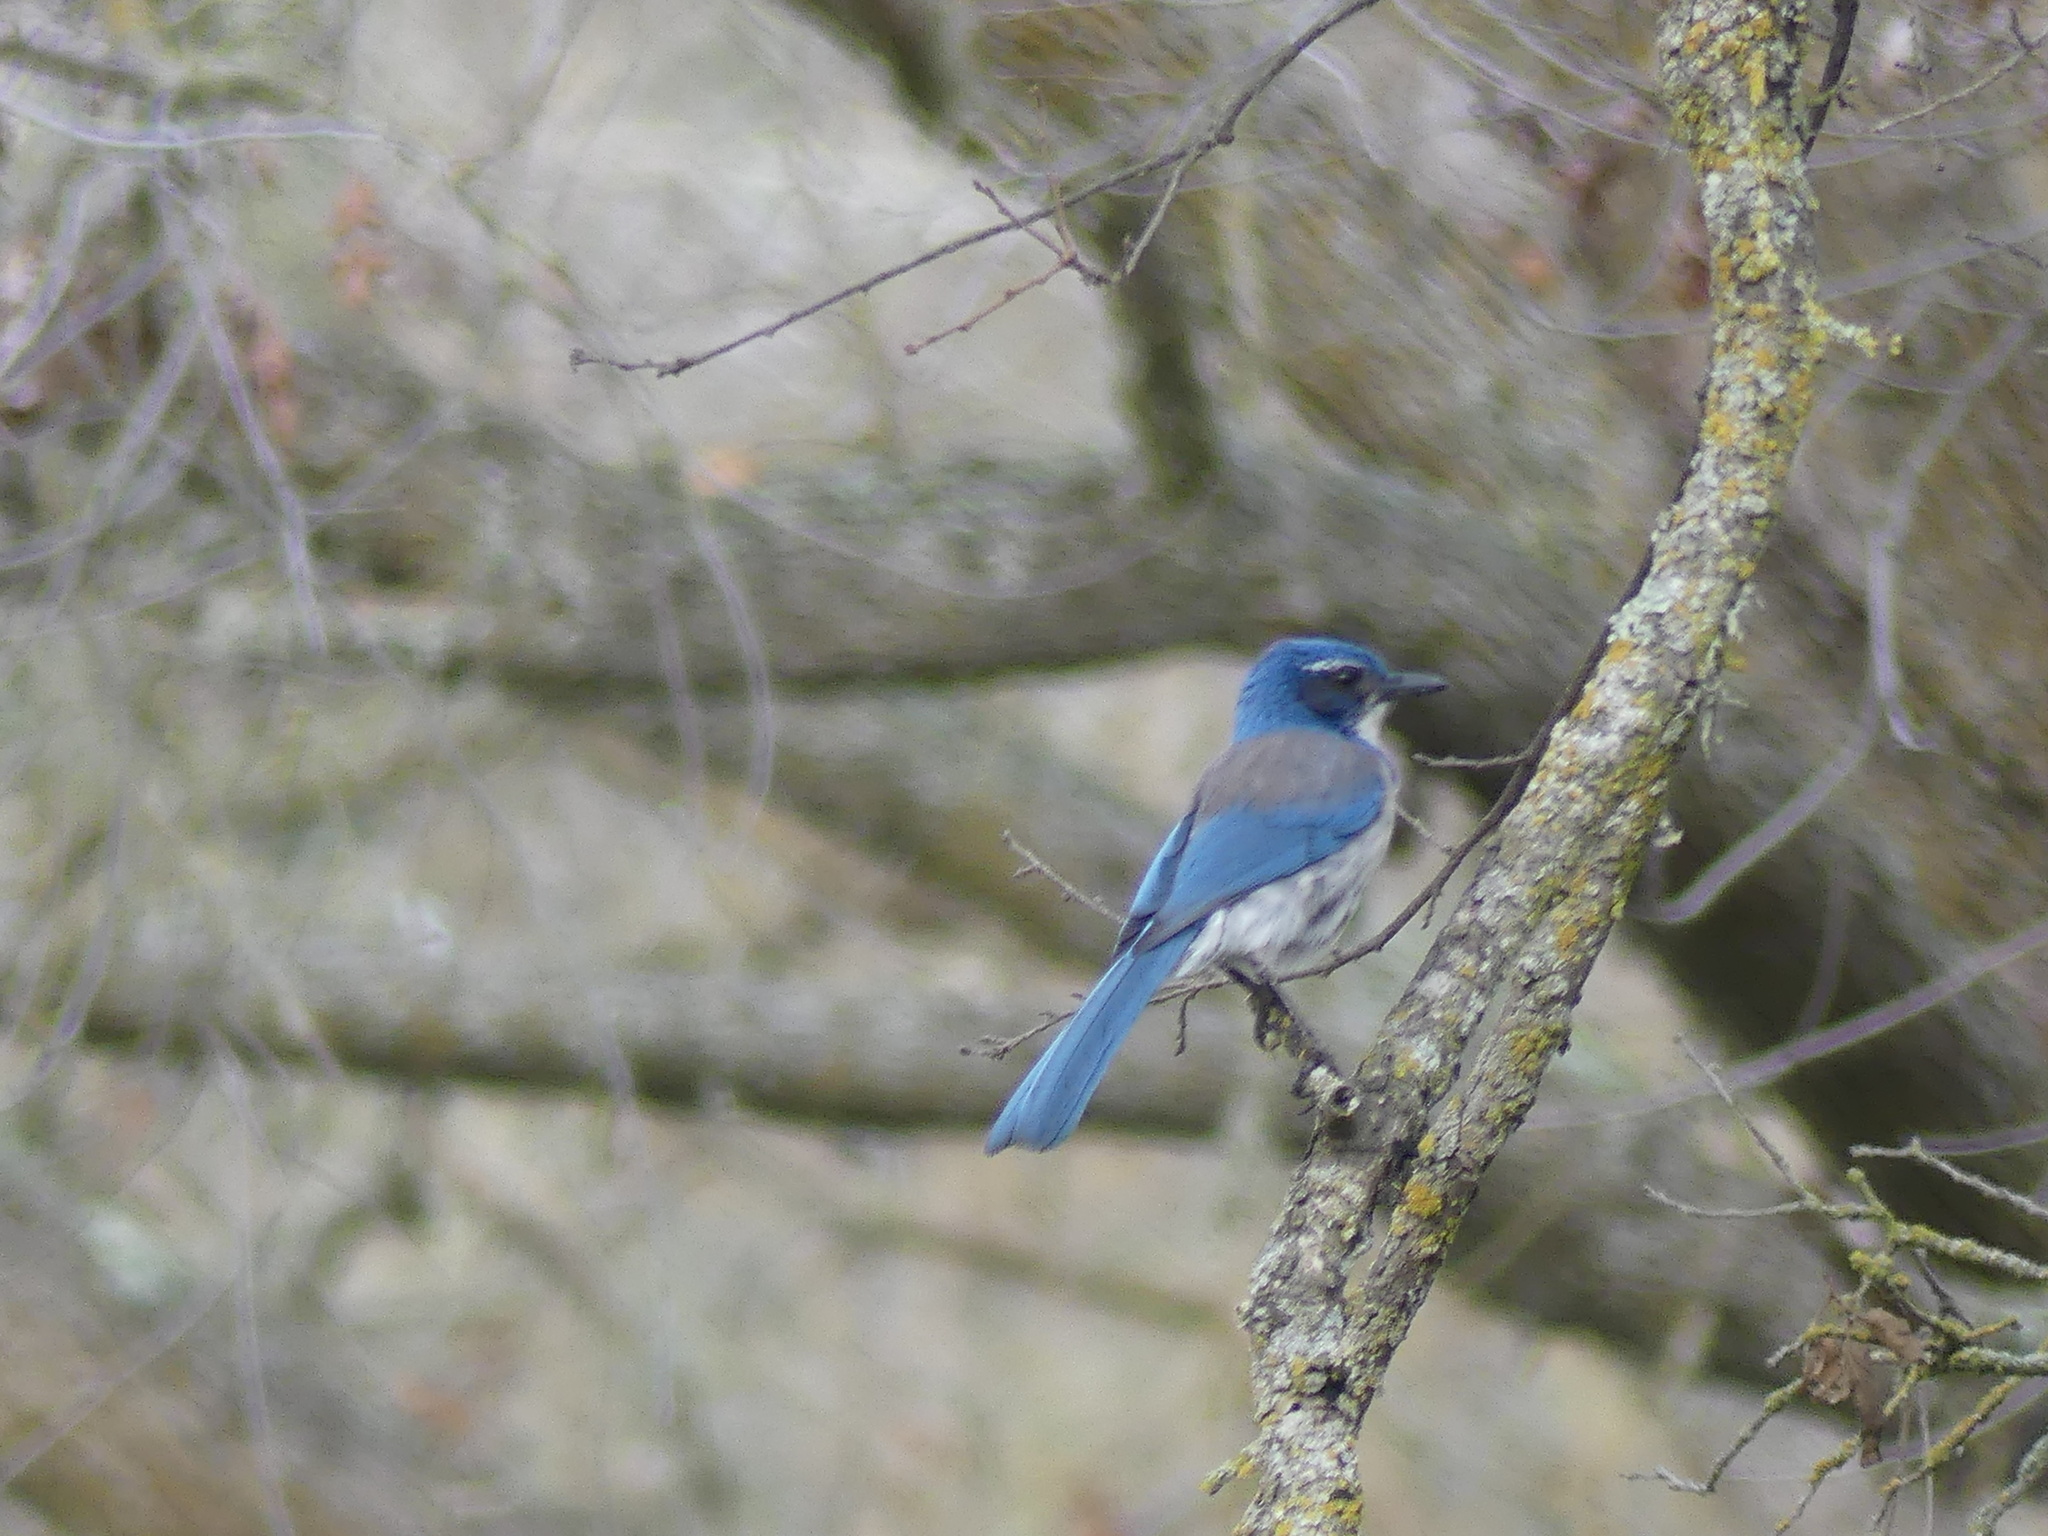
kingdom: Animalia
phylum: Chordata
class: Aves
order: Passeriformes
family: Corvidae
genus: Aphelocoma
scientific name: Aphelocoma californica
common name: California scrub-jay
